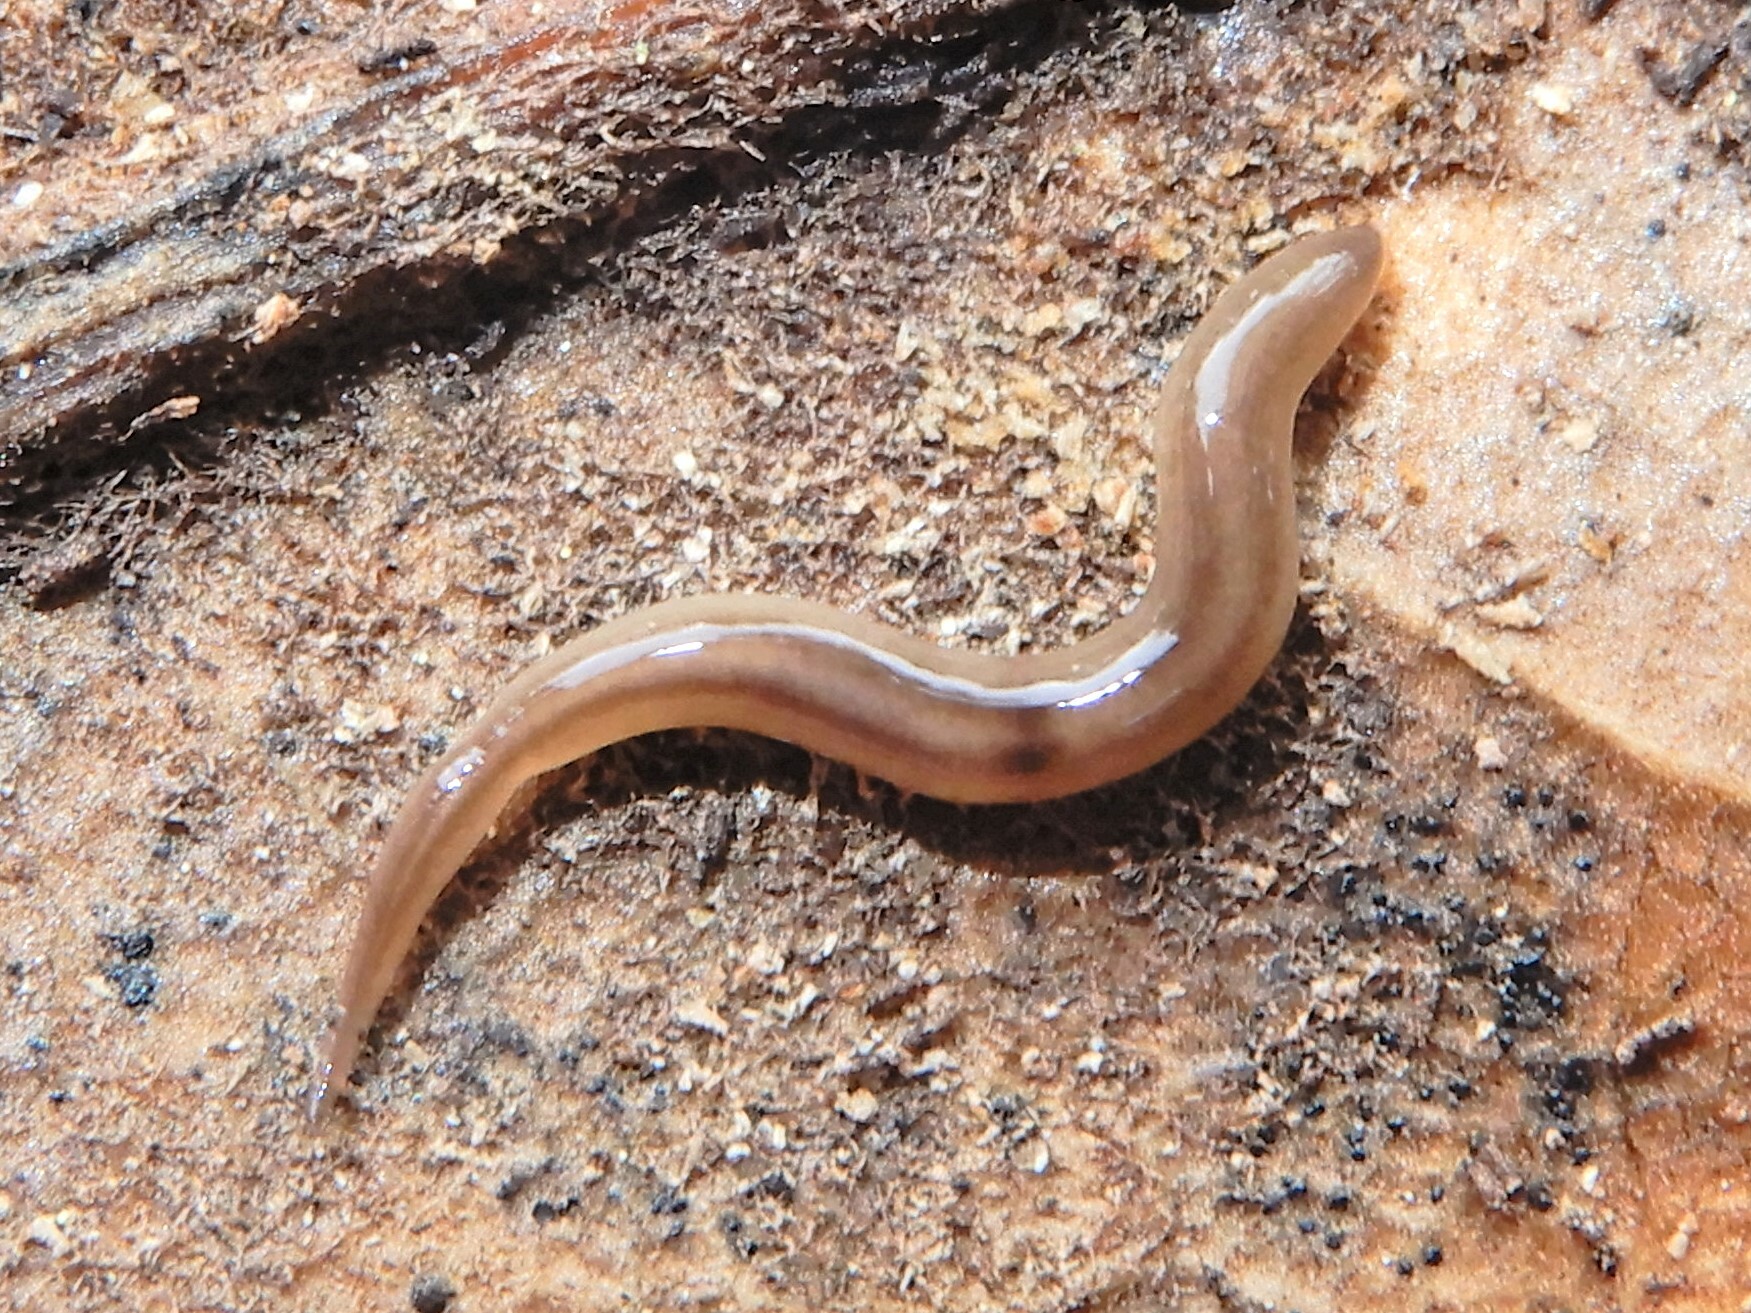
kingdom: Animalia
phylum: Platyhelminthes
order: Tricladida
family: Geoplanidae
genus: Rhynchodemus
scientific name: Rhynchodemus sylvaticus
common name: A flatworm
